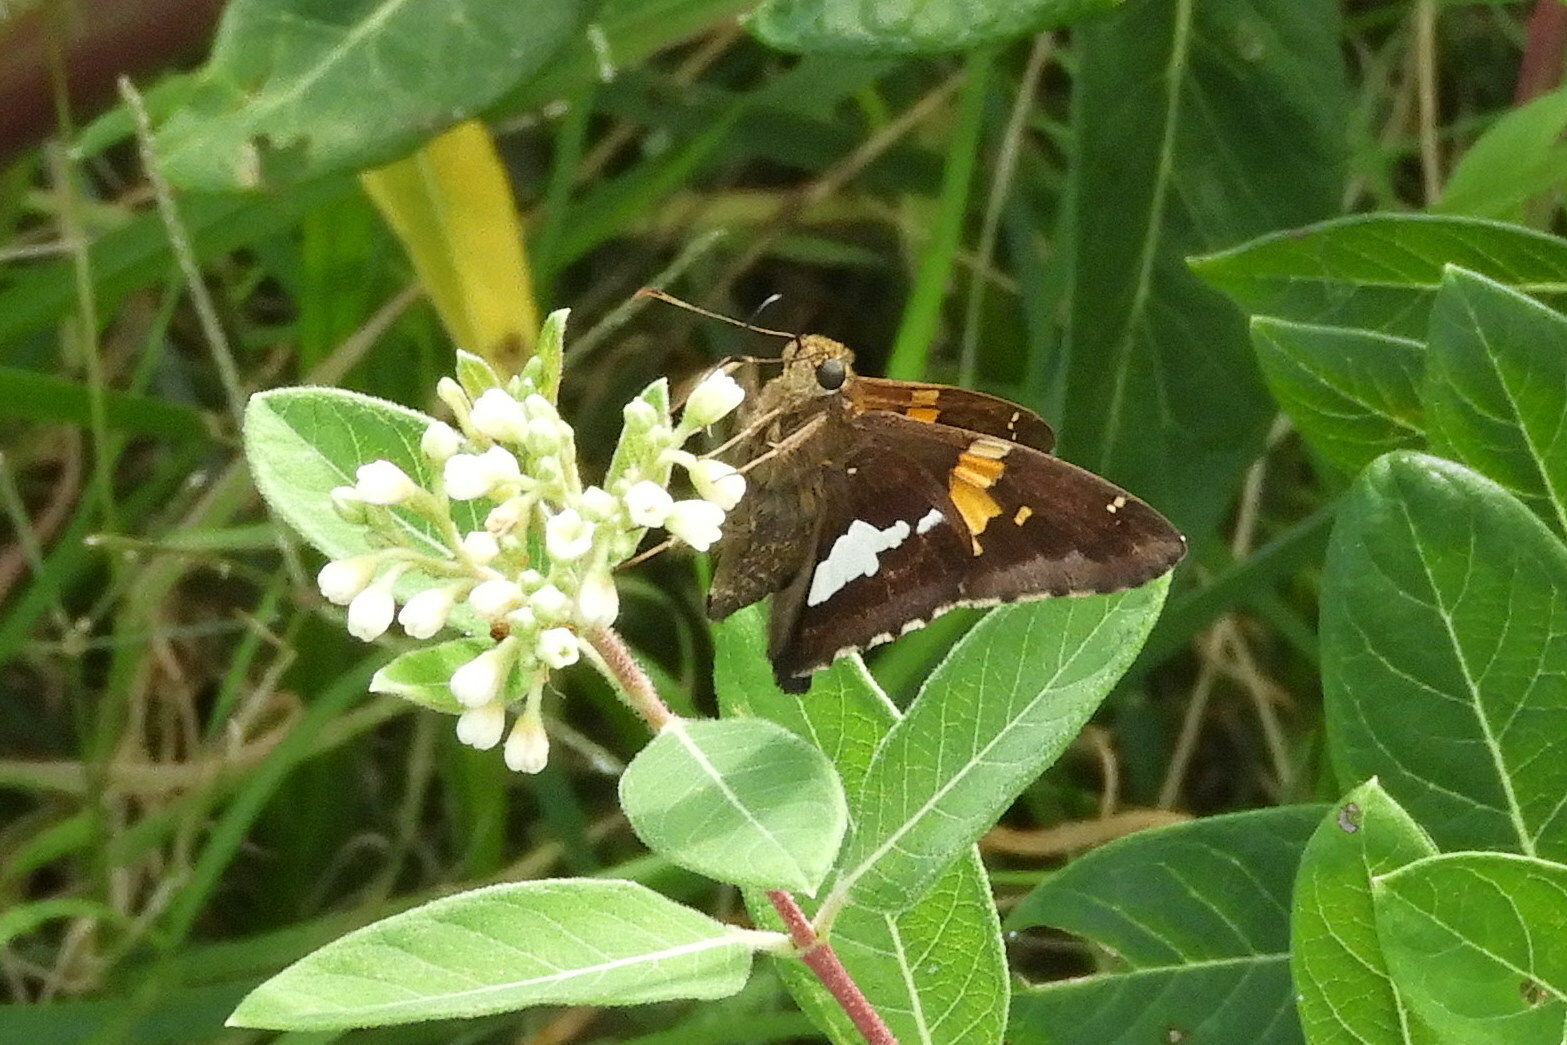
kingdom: Animalia
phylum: Arthropoda
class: Insecta
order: Lepidoptera
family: Hesperiidae
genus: Epargyreus
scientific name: Epargyreus clarus
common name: Silver-spotted skipper
